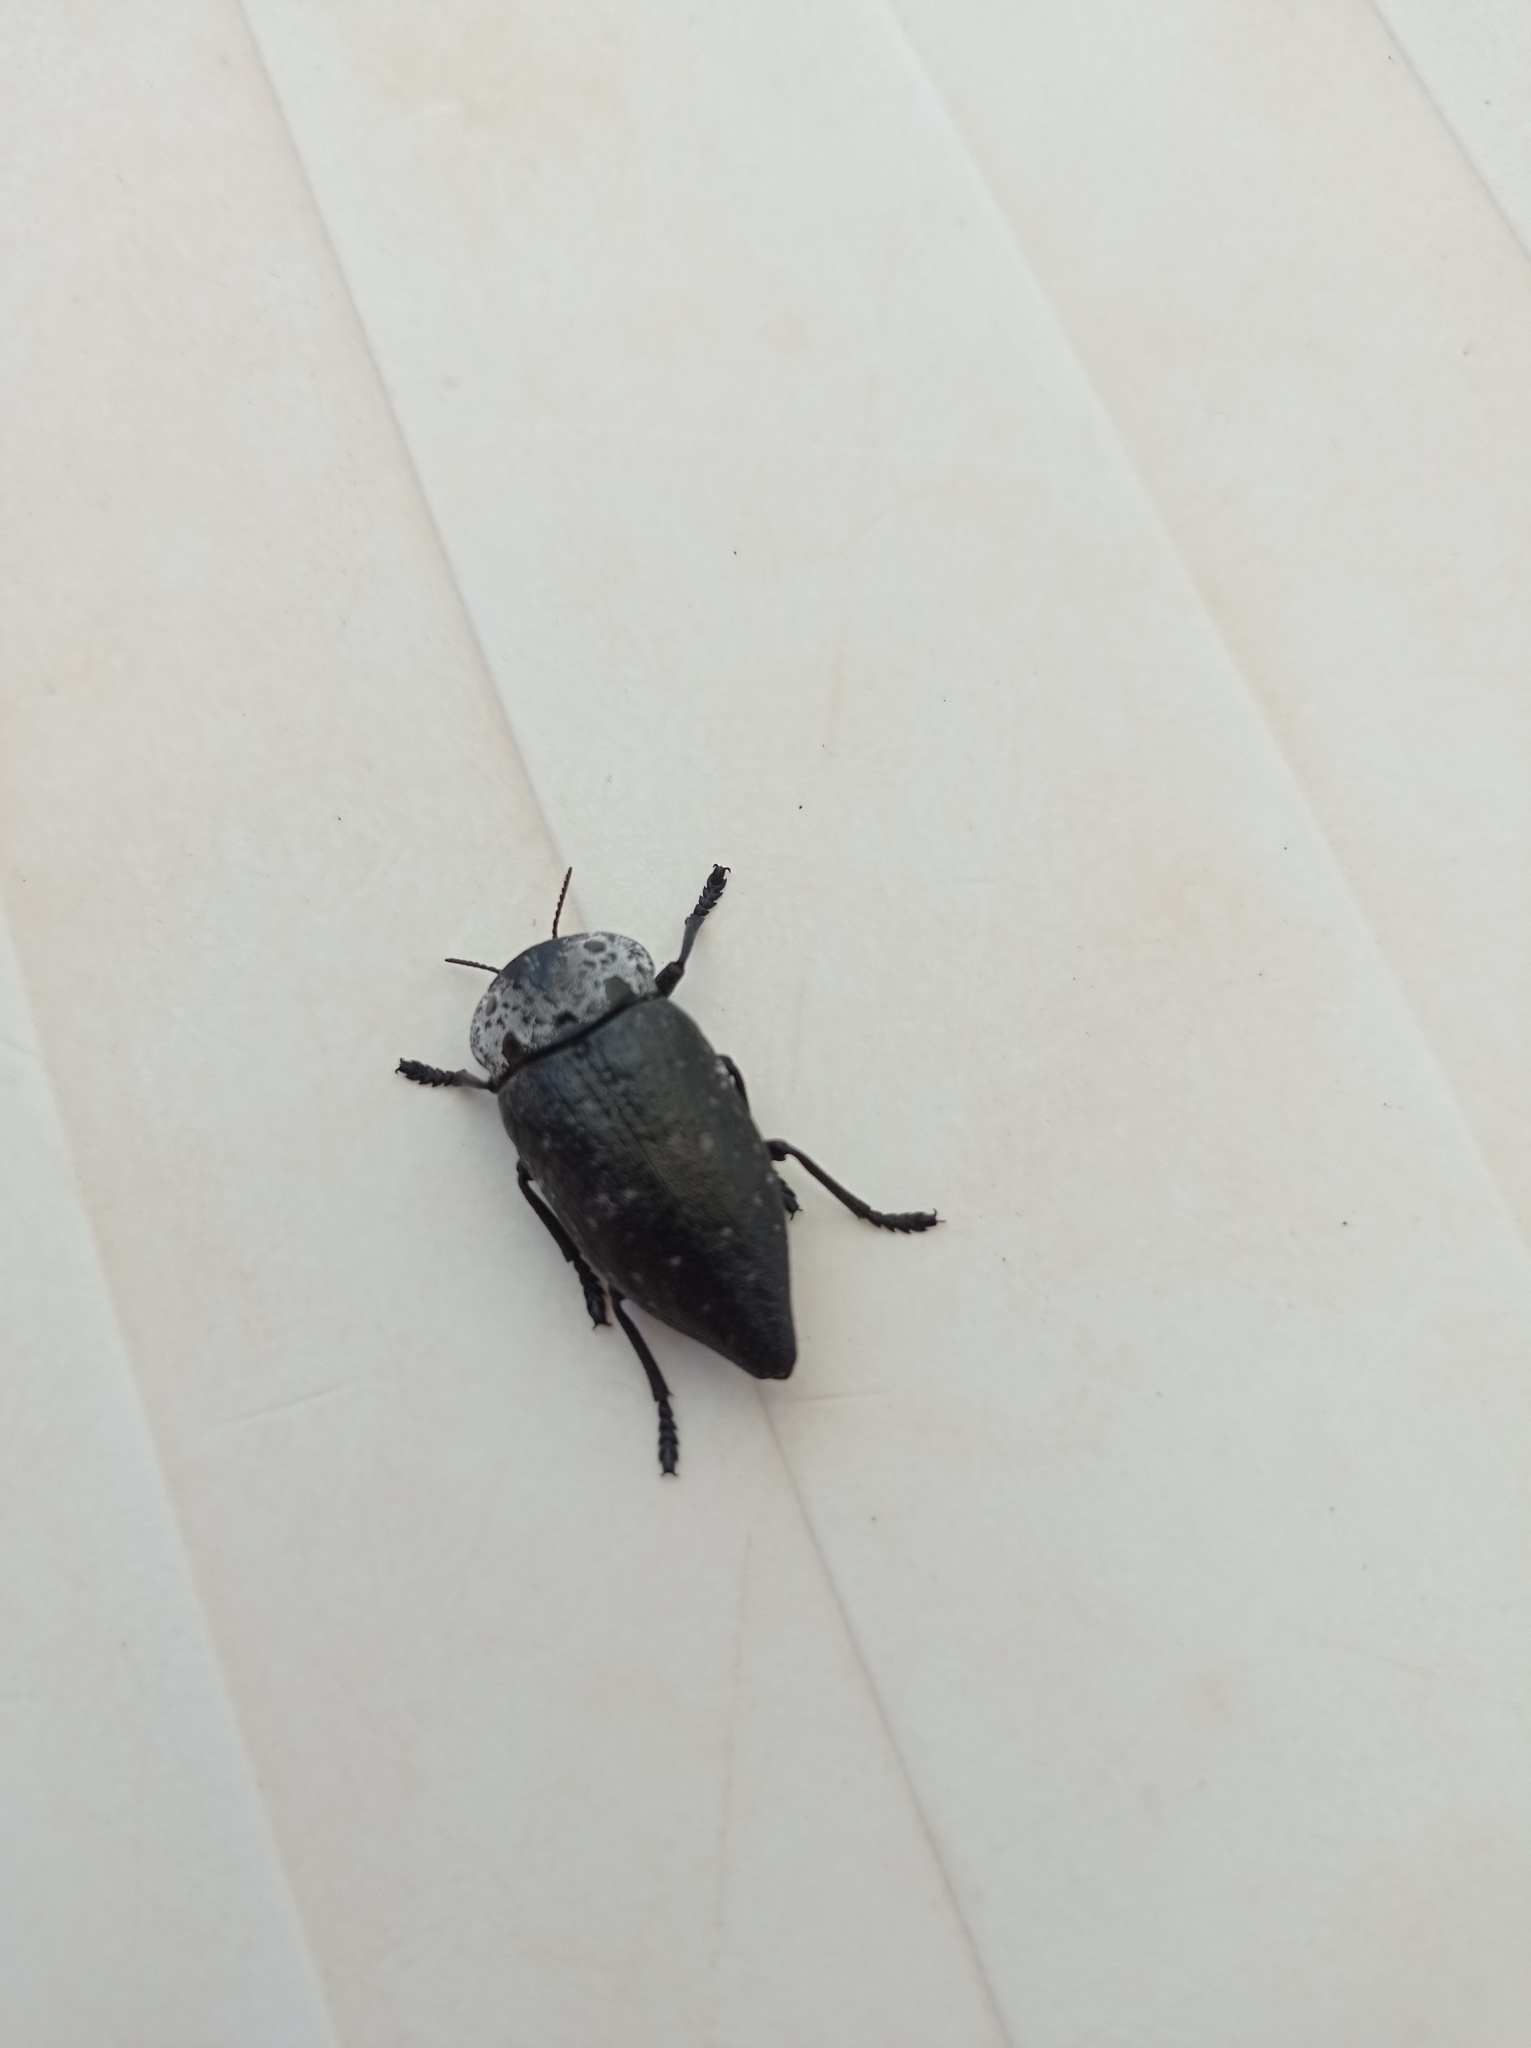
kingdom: Animalia
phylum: Arthropoda
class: Insecta
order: Coleoptera
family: Buprestidae
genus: Capnodis
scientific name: Capnodis tenebrionis
